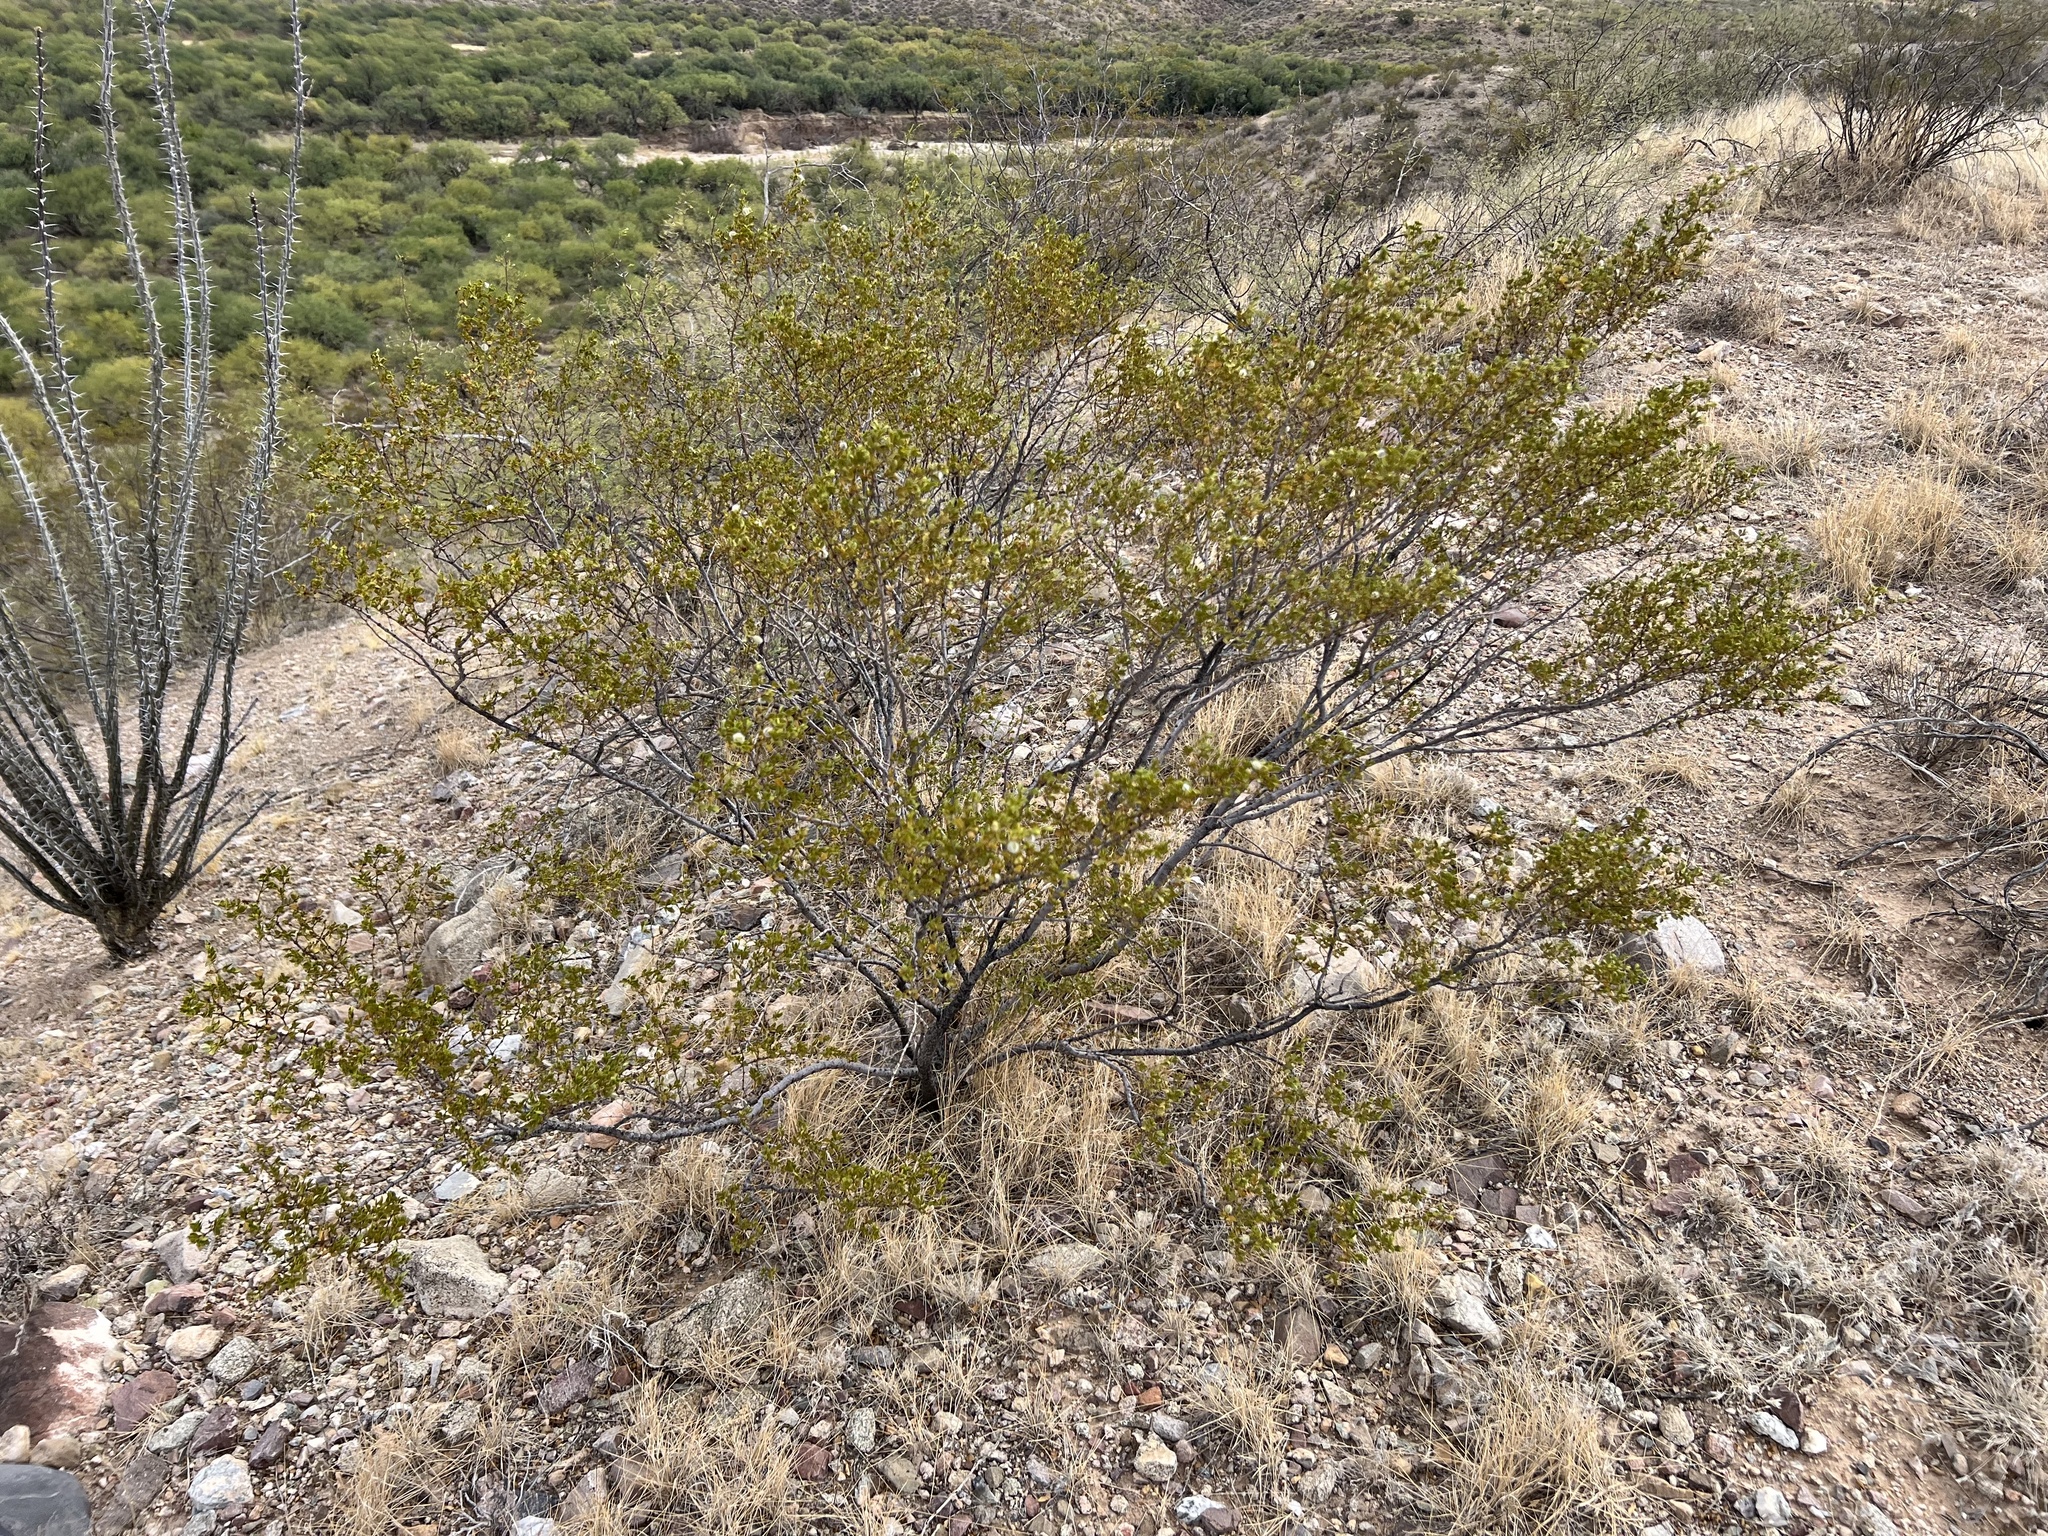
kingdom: Plantae
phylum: Tracheophyta
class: Magnoliopsida
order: Zygophyllales
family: Zygophyllaceae
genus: Larrea
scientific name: Larrea tridentata
